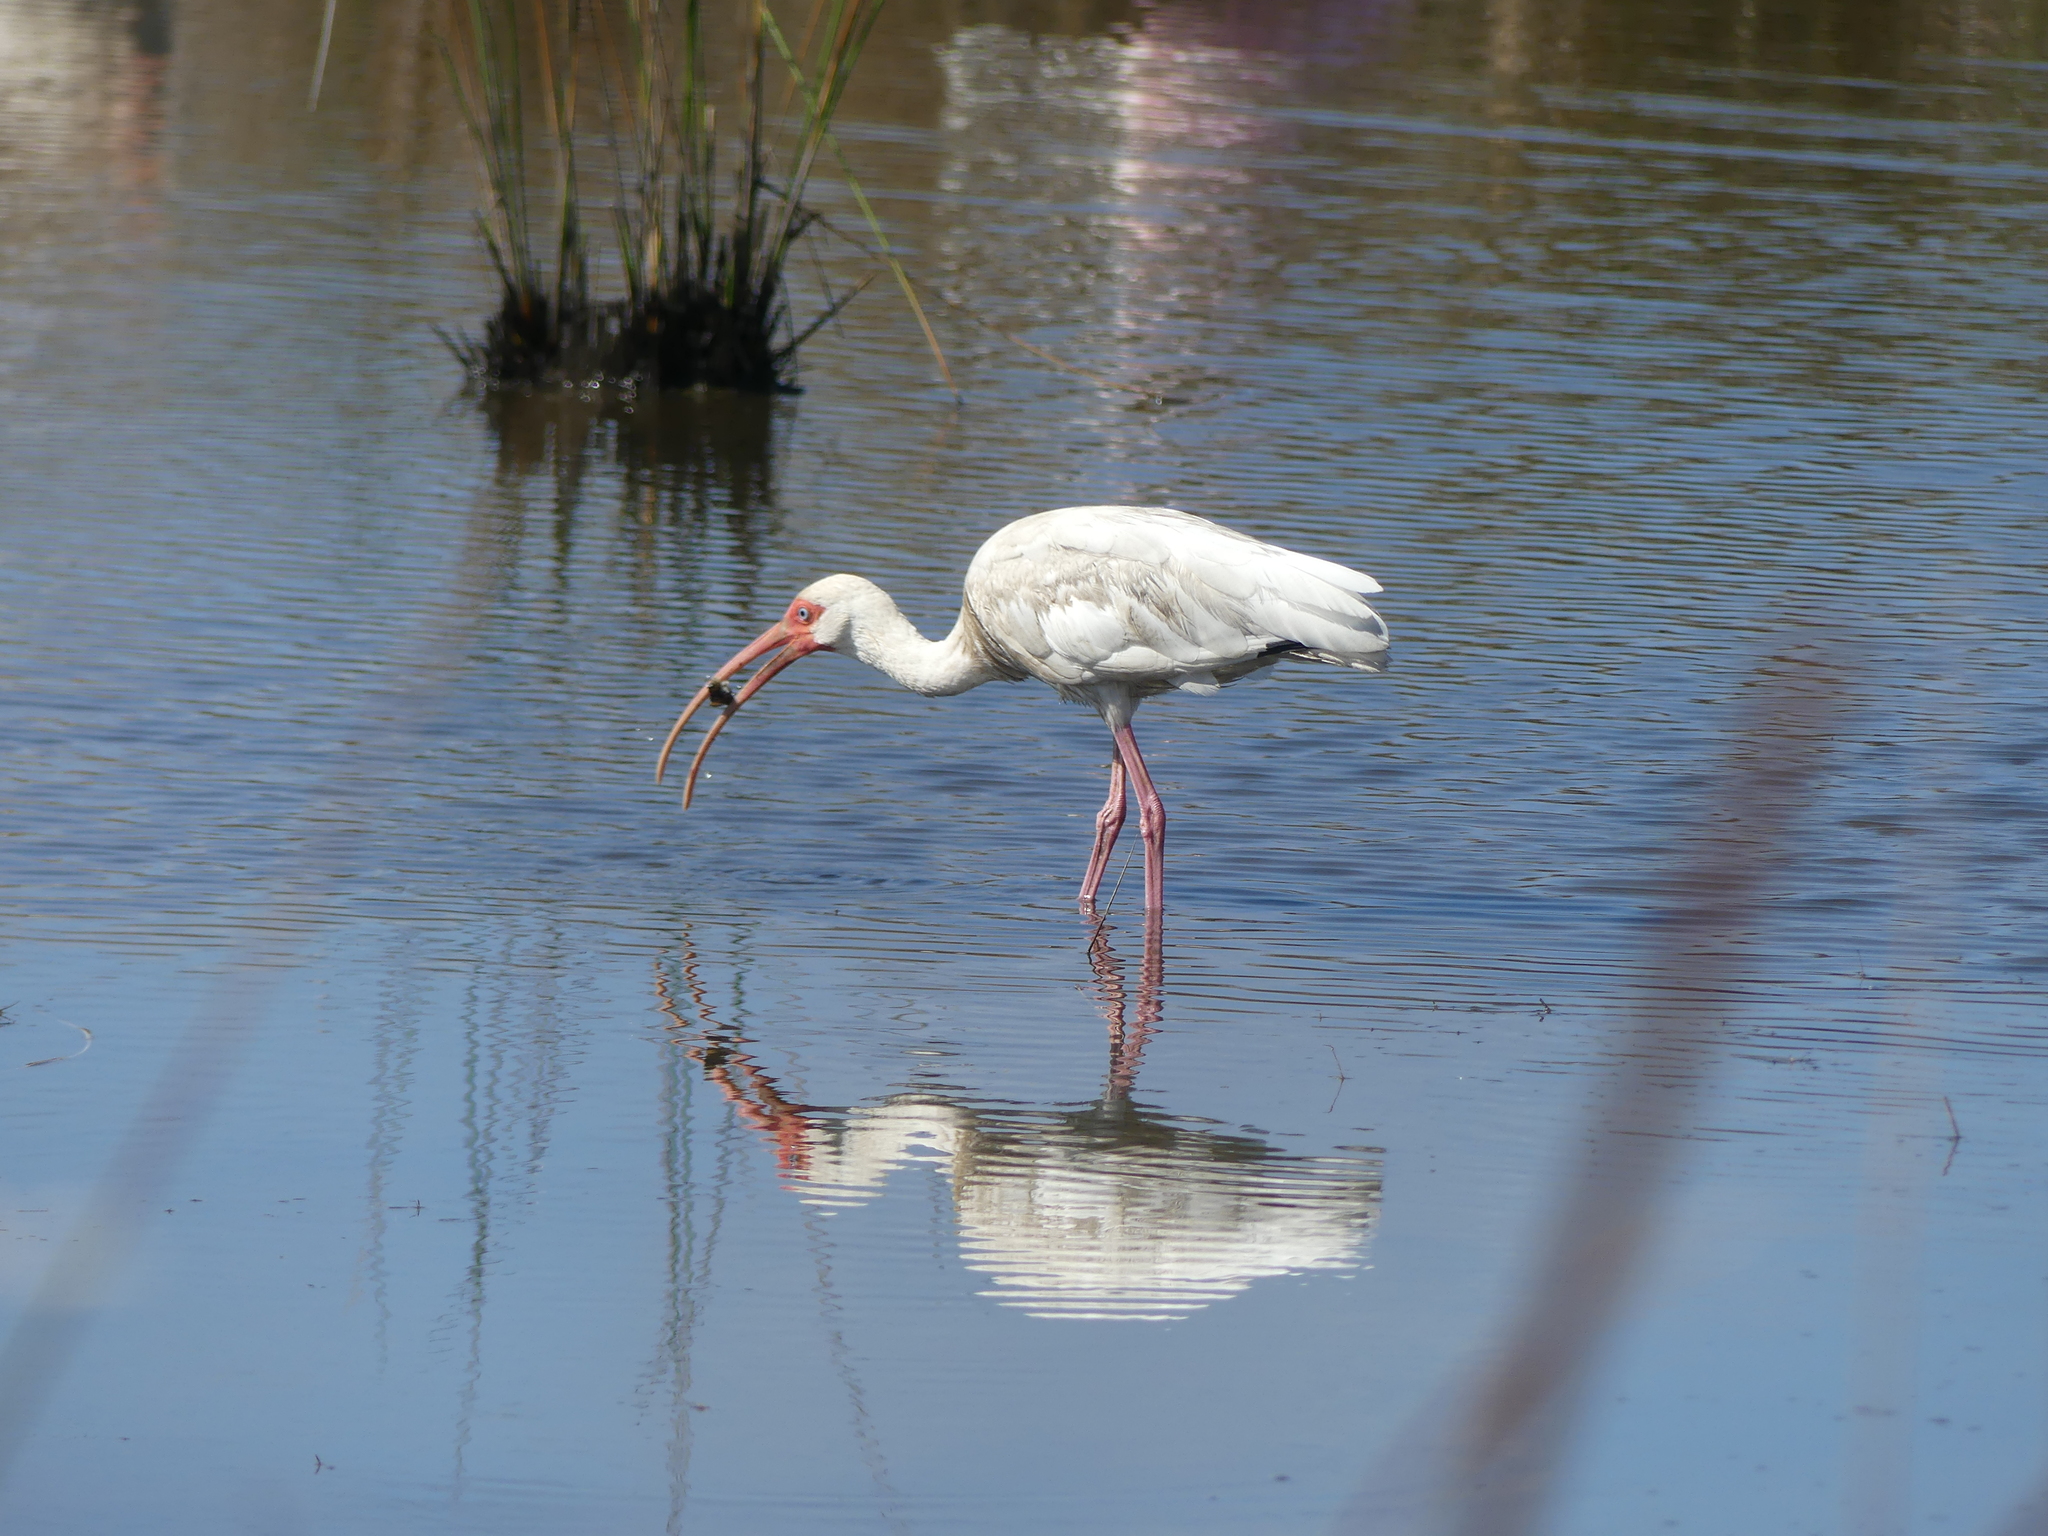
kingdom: Animalia
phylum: Chordata
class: Aves
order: Pelecaniformes
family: Threskiornithidae
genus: Eudocimus
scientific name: Eudocimus albus
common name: White ibis
